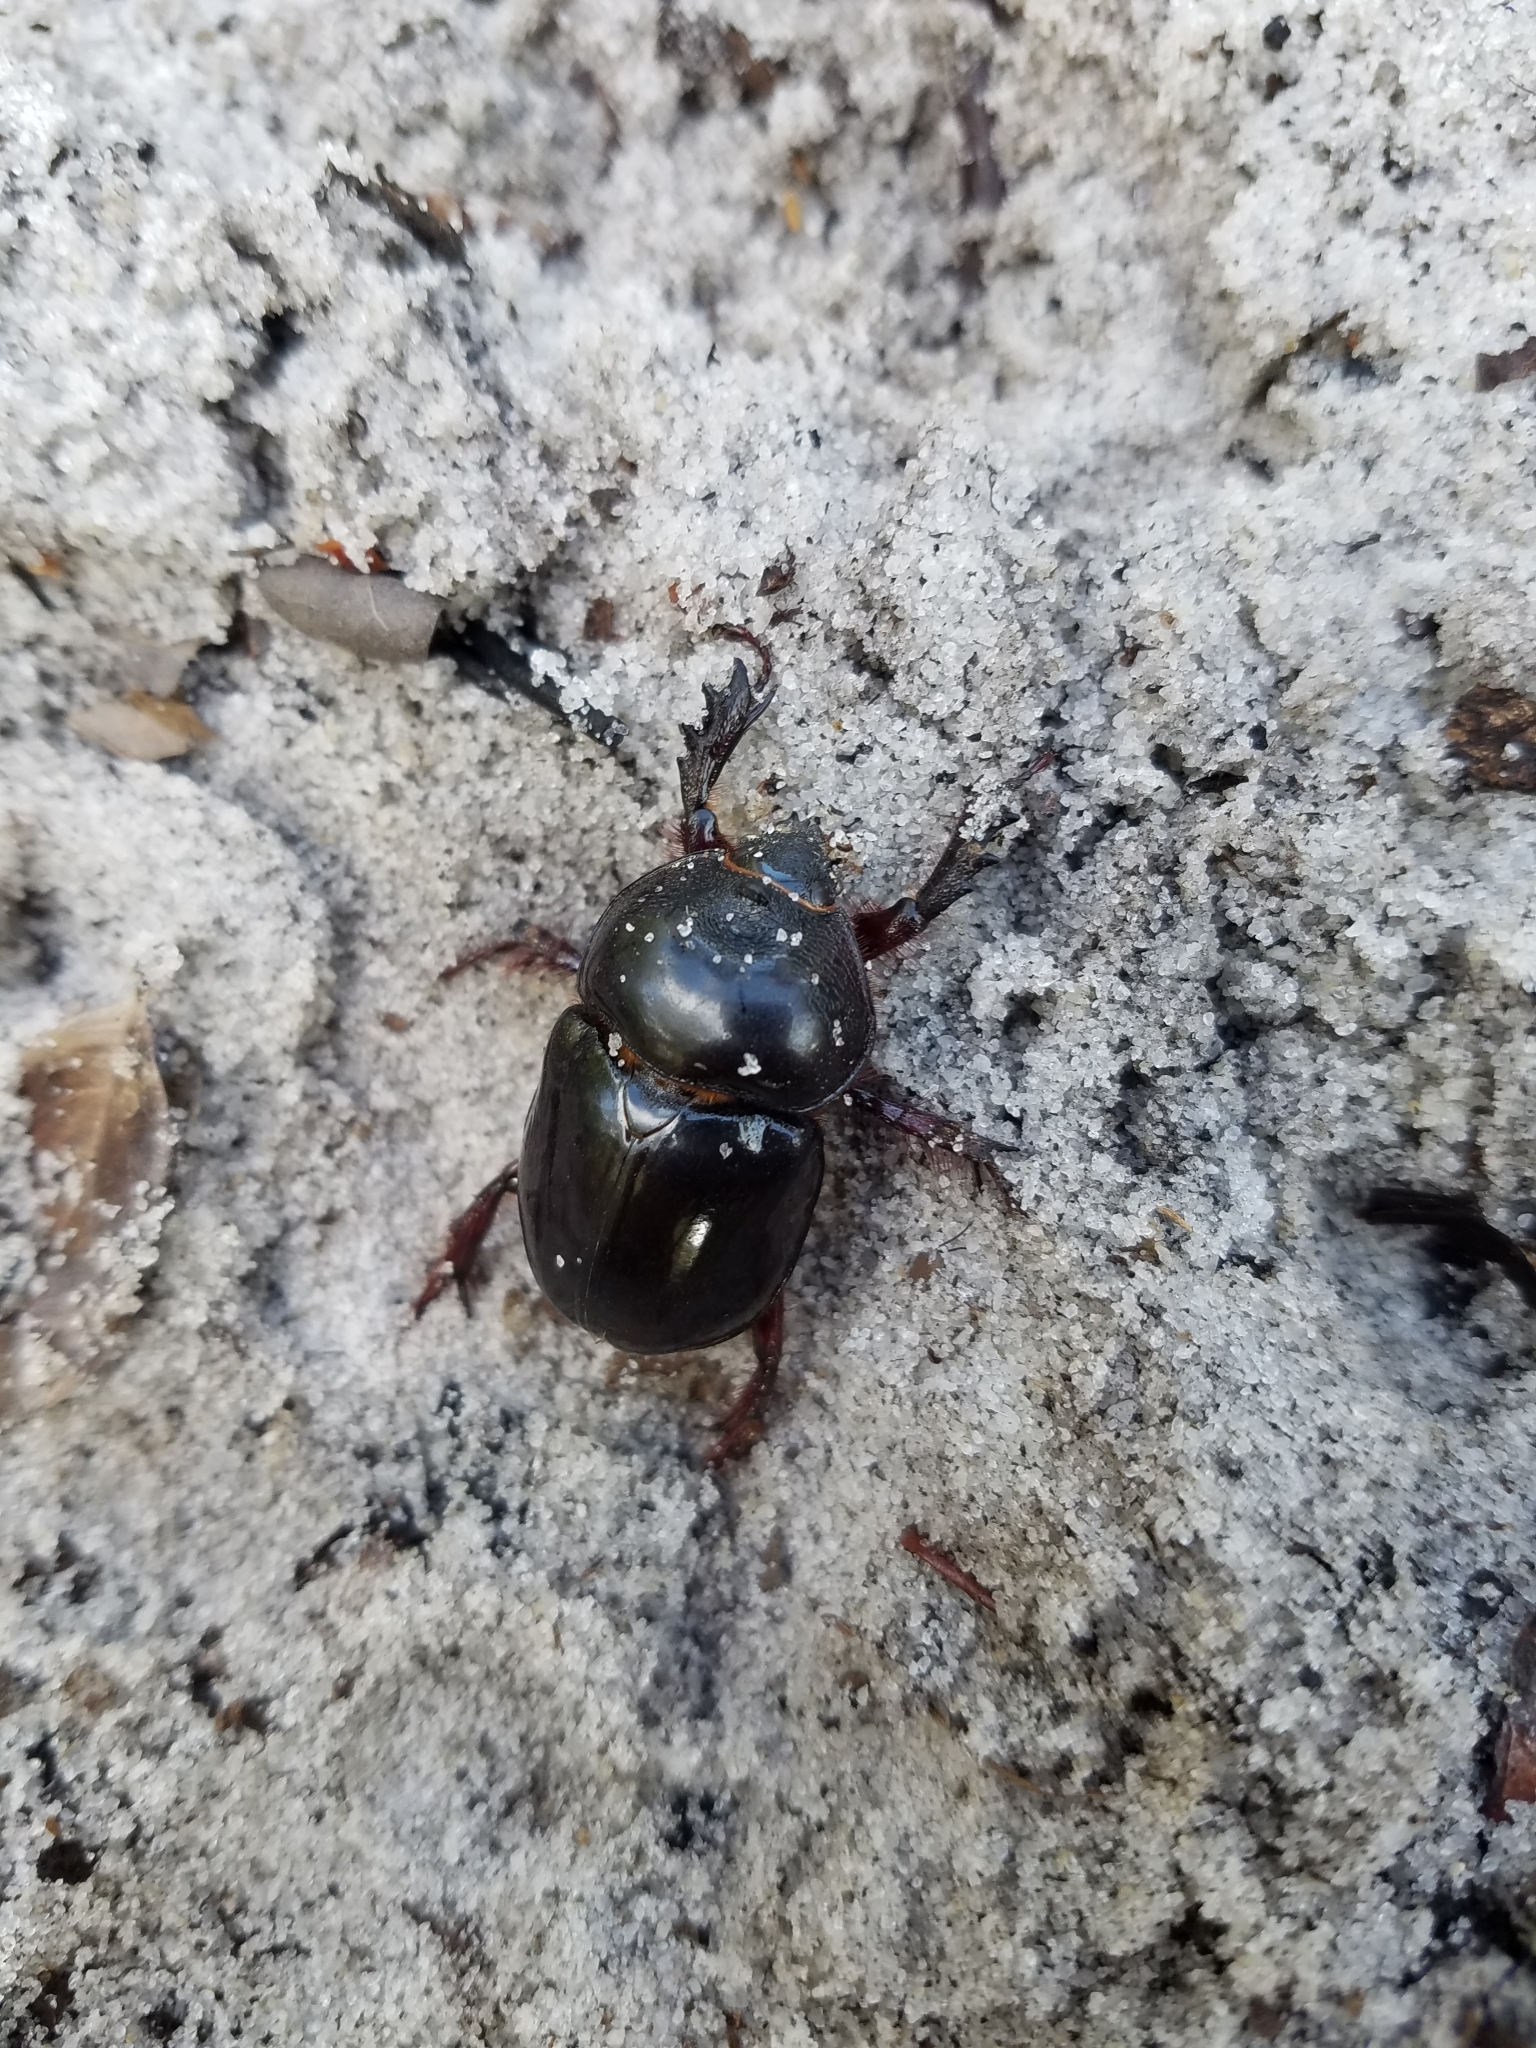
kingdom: Animalia
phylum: Arthropoda
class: Insecta
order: Coleoptera
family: Scarabaeidae
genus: Strategus
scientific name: Strategus antaeus
